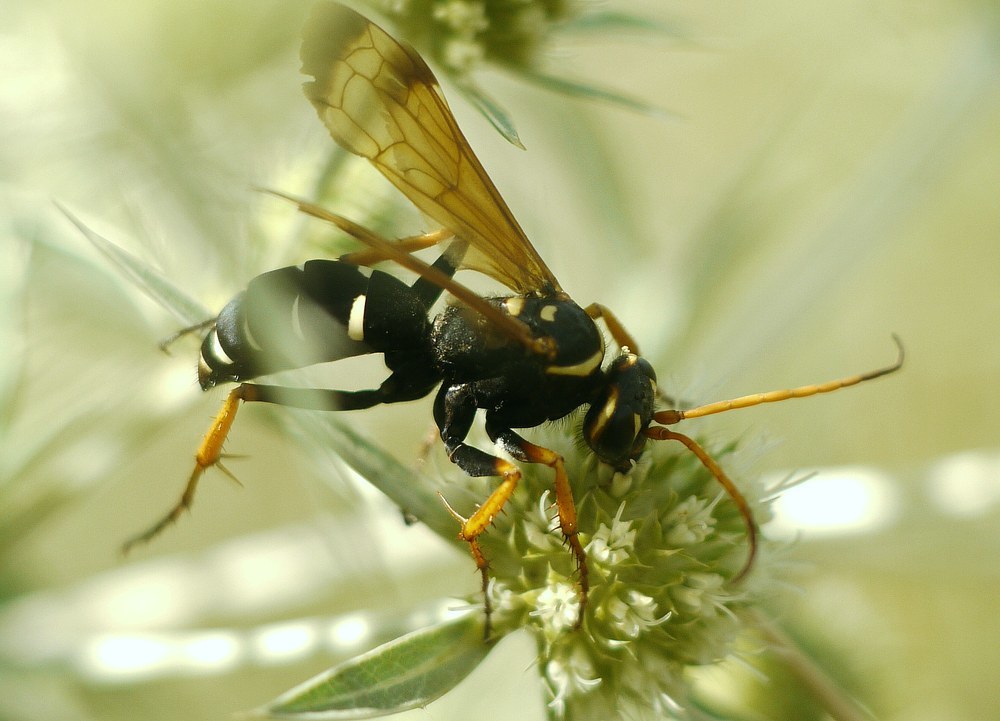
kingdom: Animalia
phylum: Arthropoda
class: Insecta
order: Hymenoptera
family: Pompilidae
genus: Parabatozonus
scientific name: Parabatozonus lacerticida
